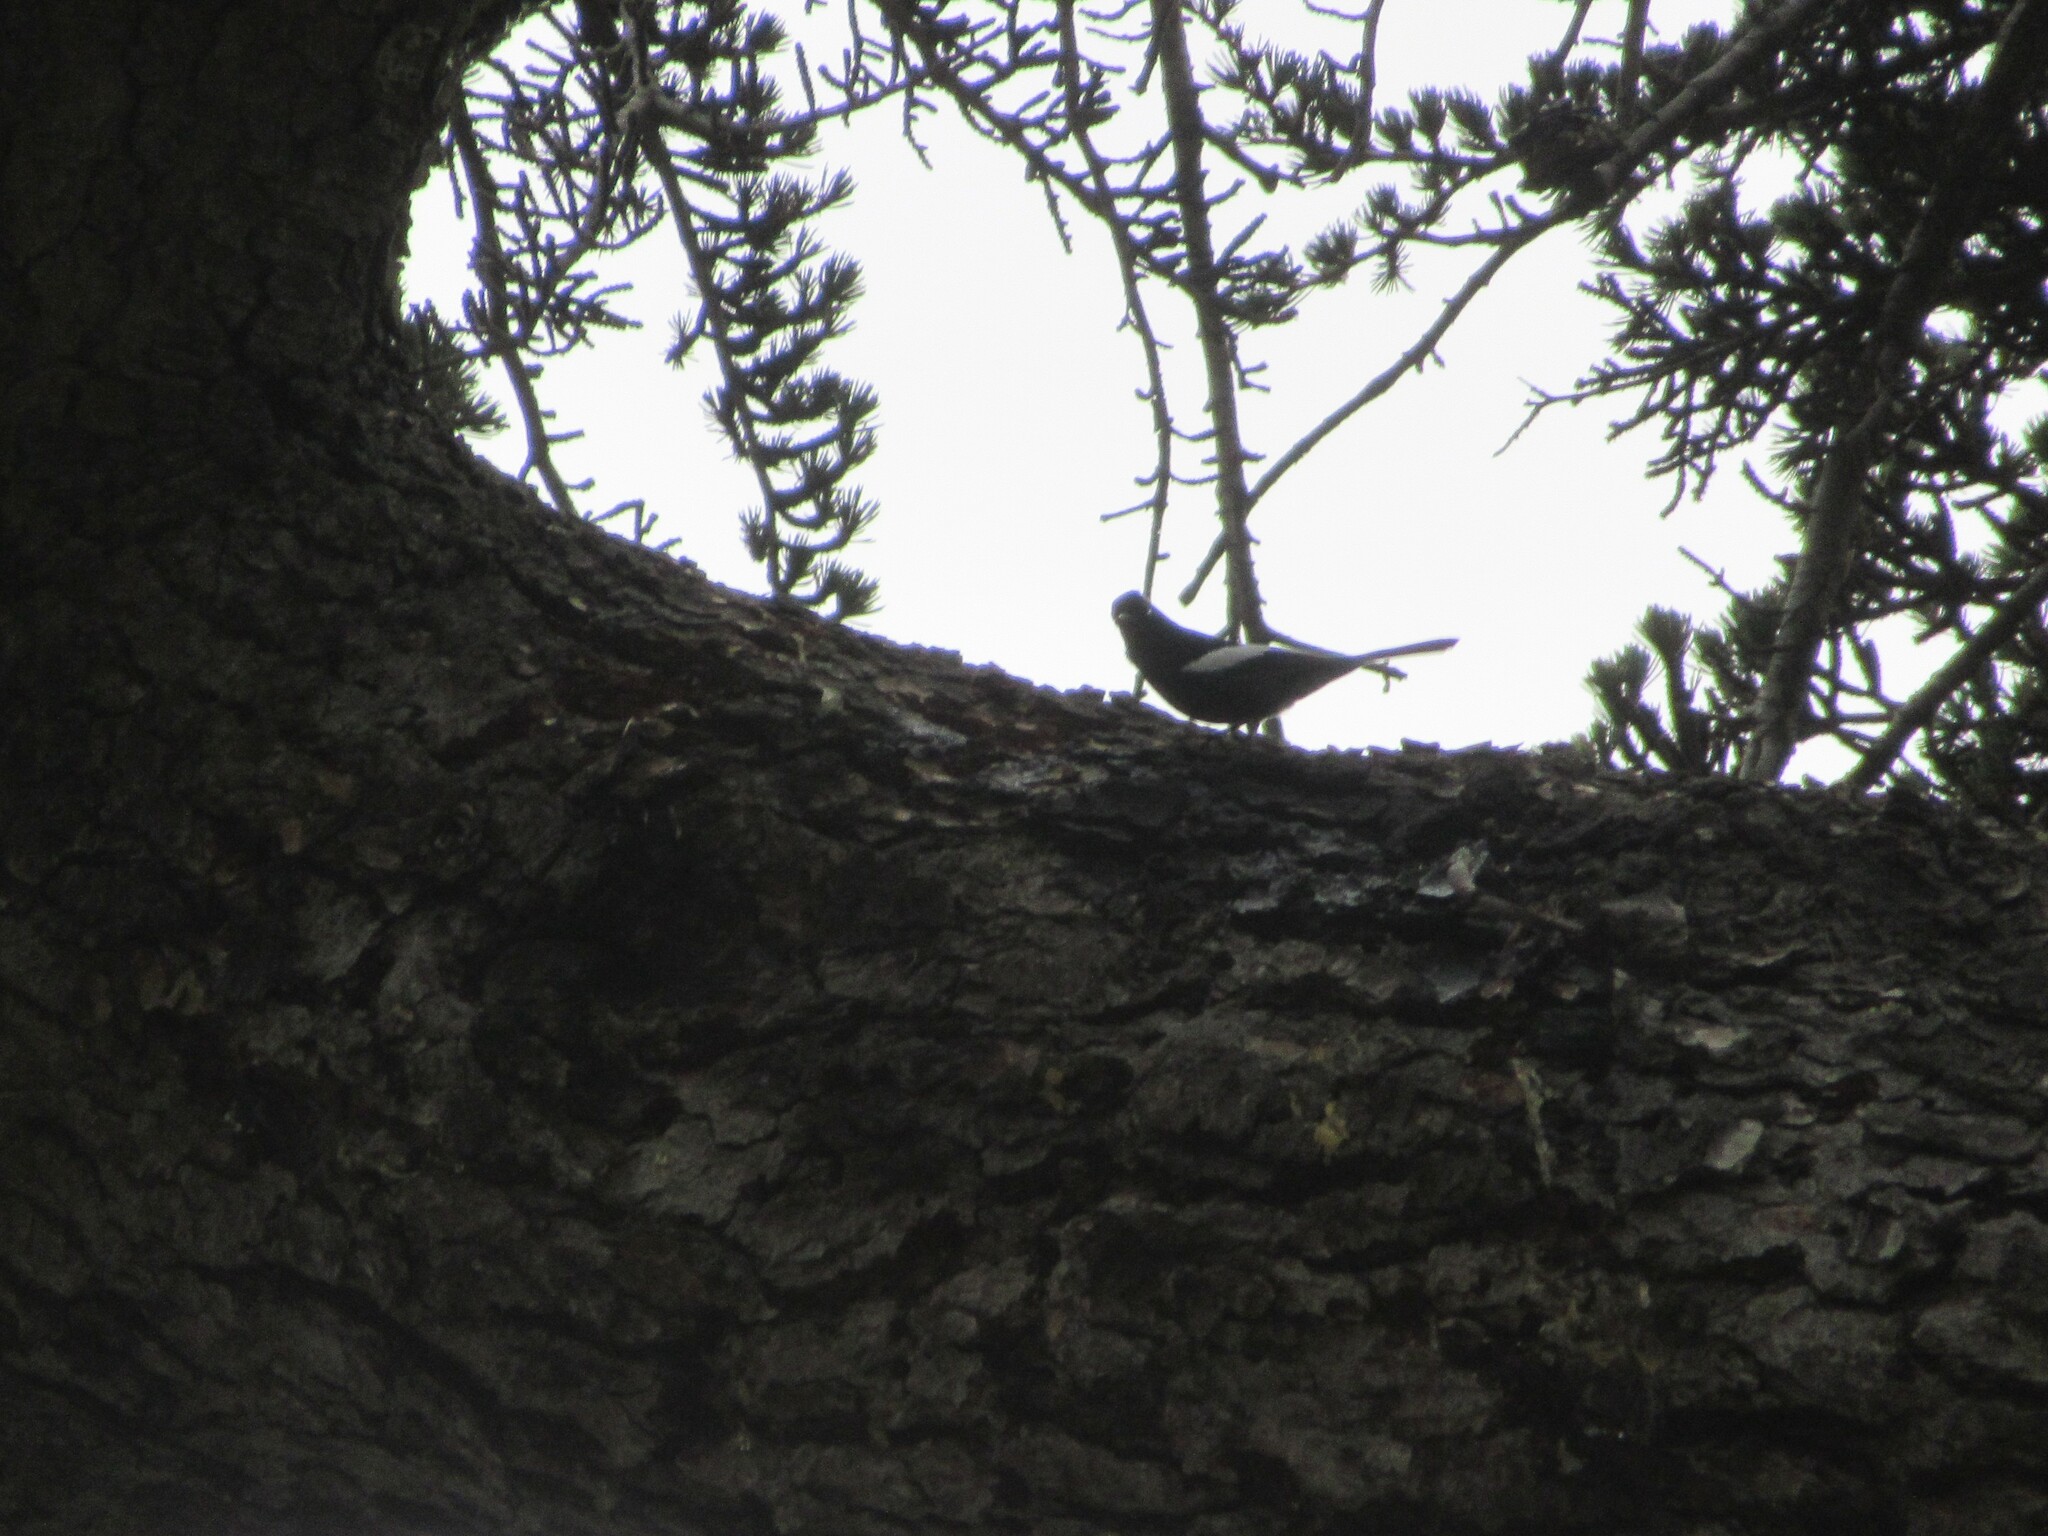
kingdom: Animalia
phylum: Chordata
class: Aves
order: Passeriformes
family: Parulidae
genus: Myioborus
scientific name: Myioborus pictus
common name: Painted whitestart
